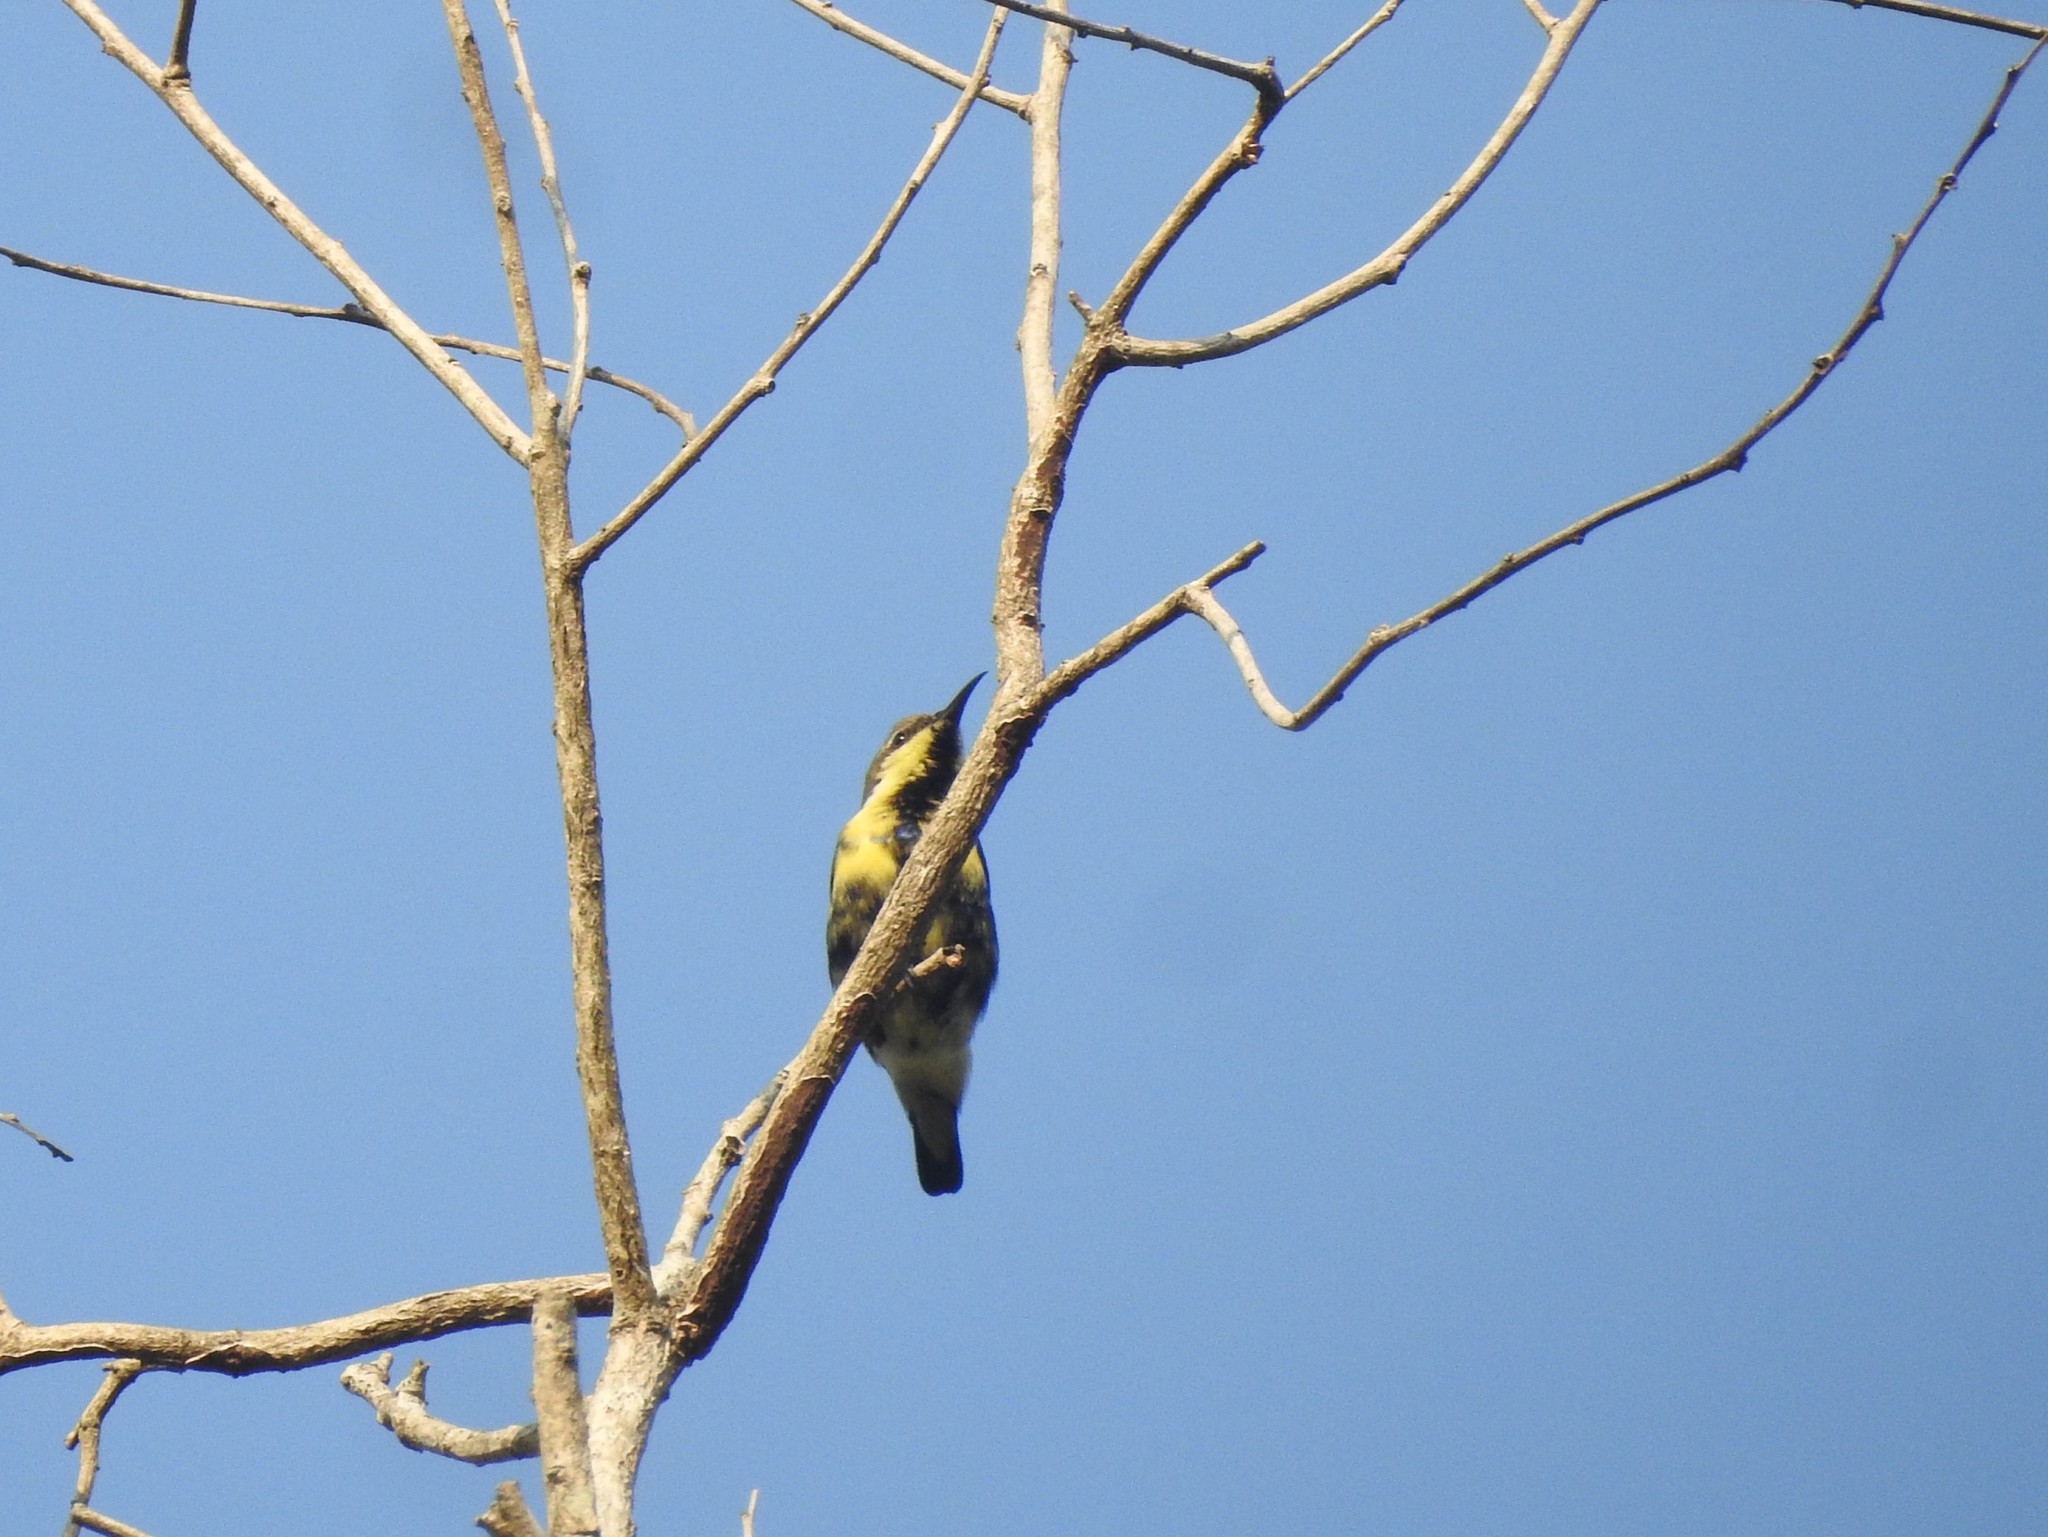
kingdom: Animalia
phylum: Chordata
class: Aves
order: Passeriformes
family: Nectariniidae
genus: Cinnyris
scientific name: Cinnyris asiaticus
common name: Purple sunbird
